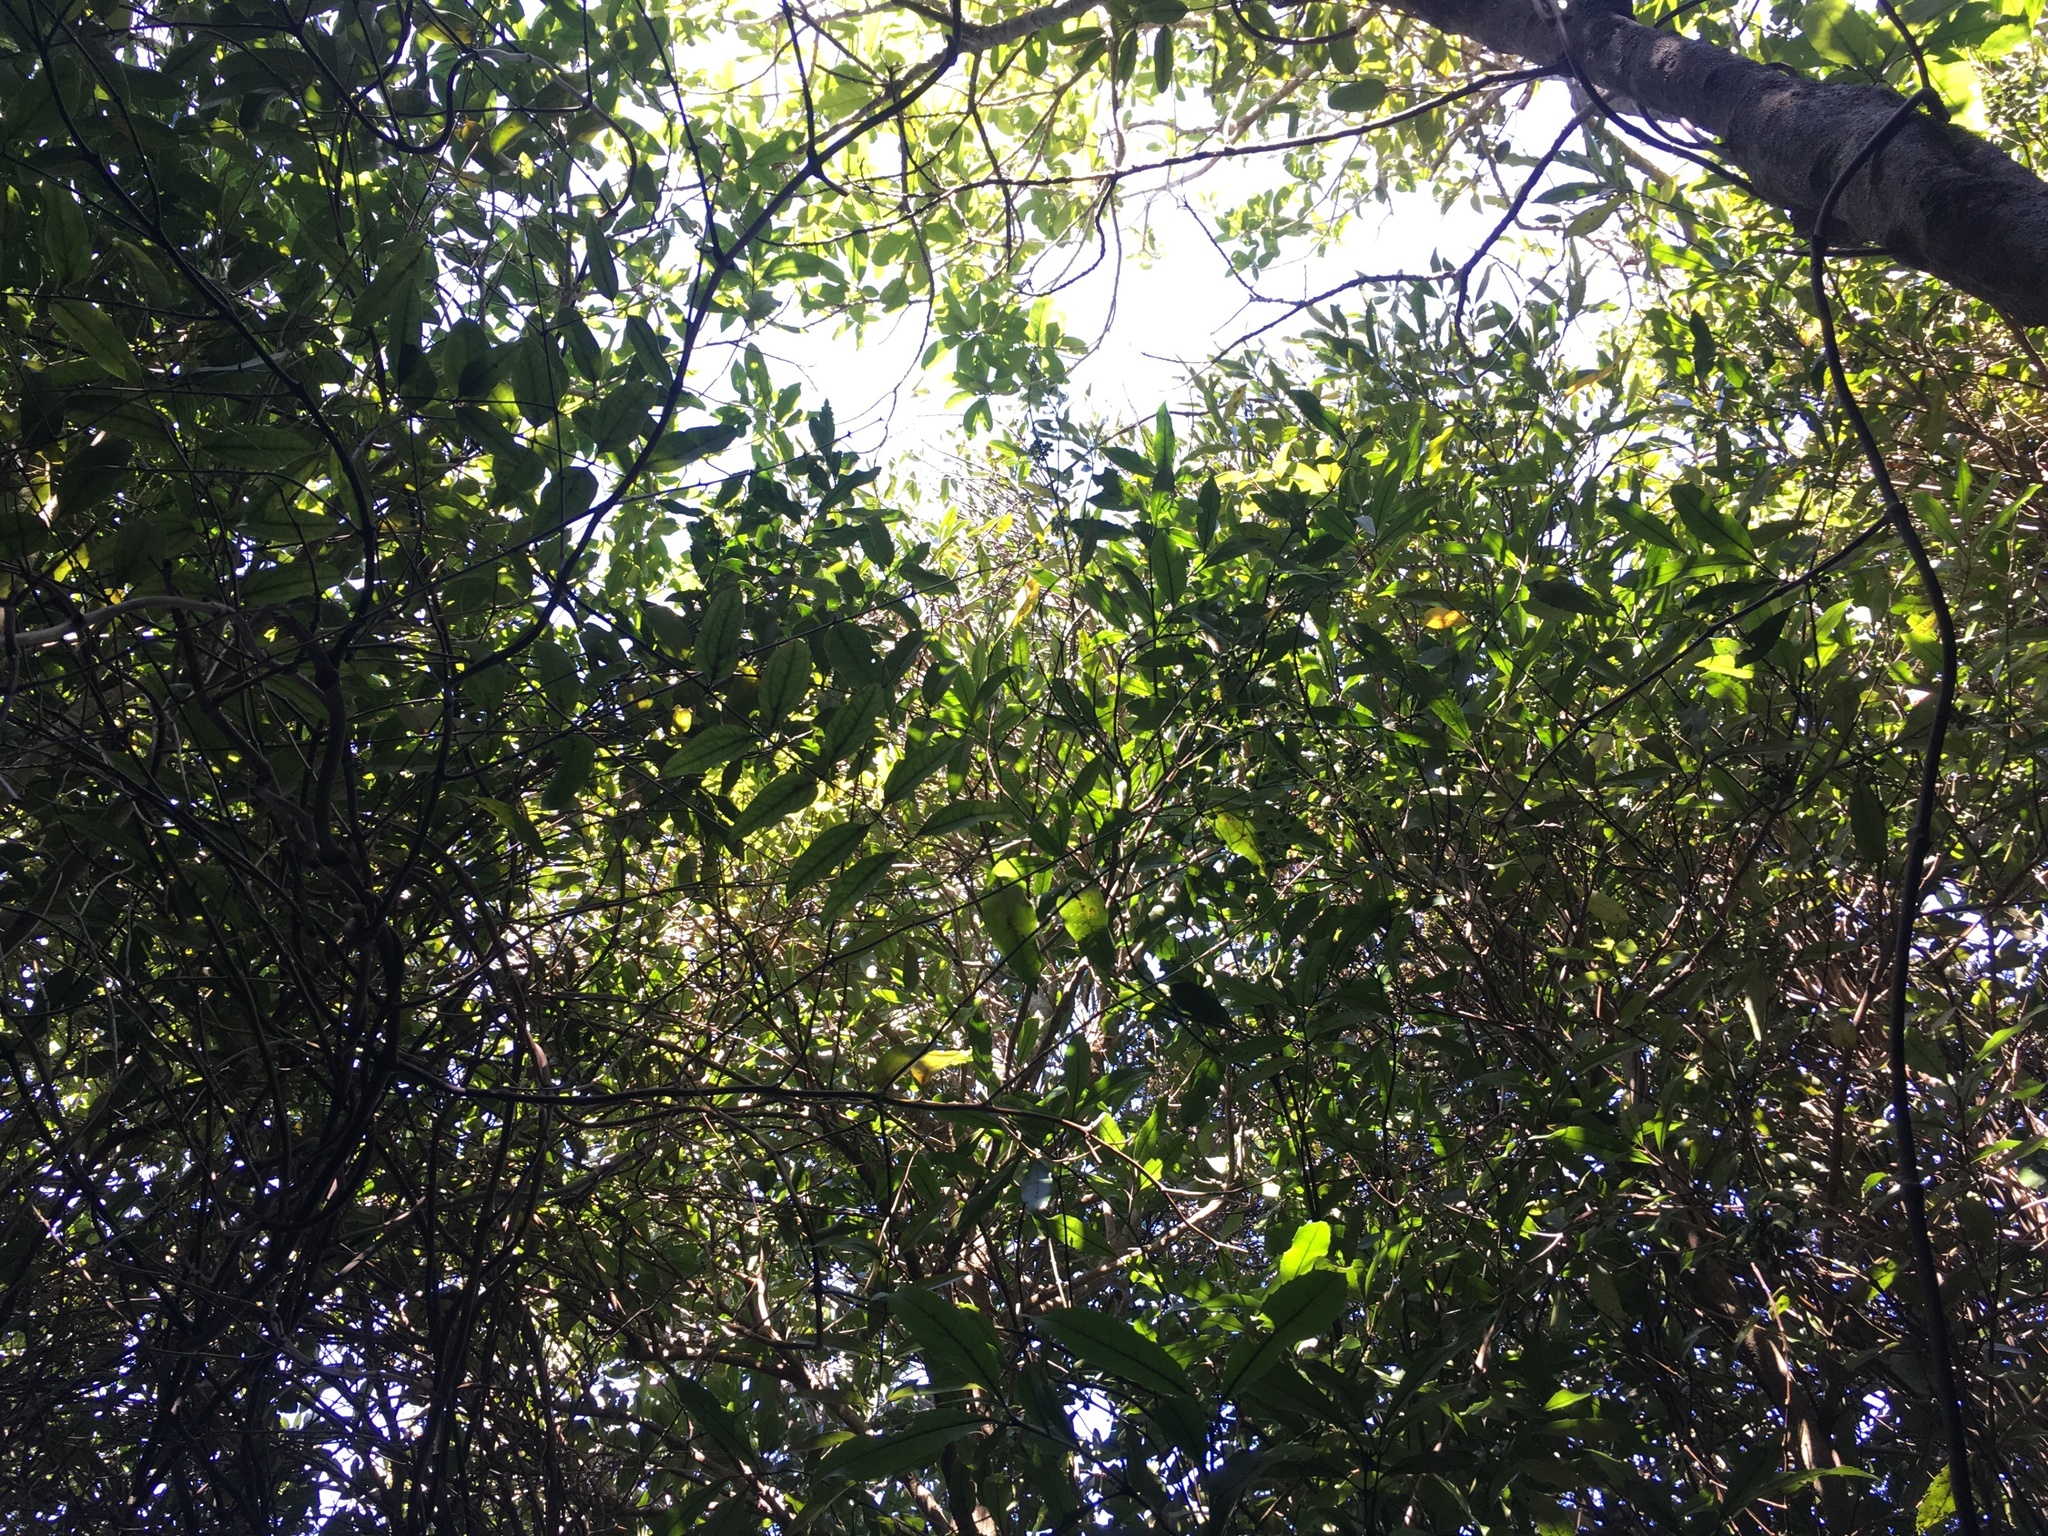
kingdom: Plantae
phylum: Tracheophyta
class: Magnoliopsida
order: Laurales
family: Monimiaceae
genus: Hedycarya
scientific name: Hedycarya arborea
